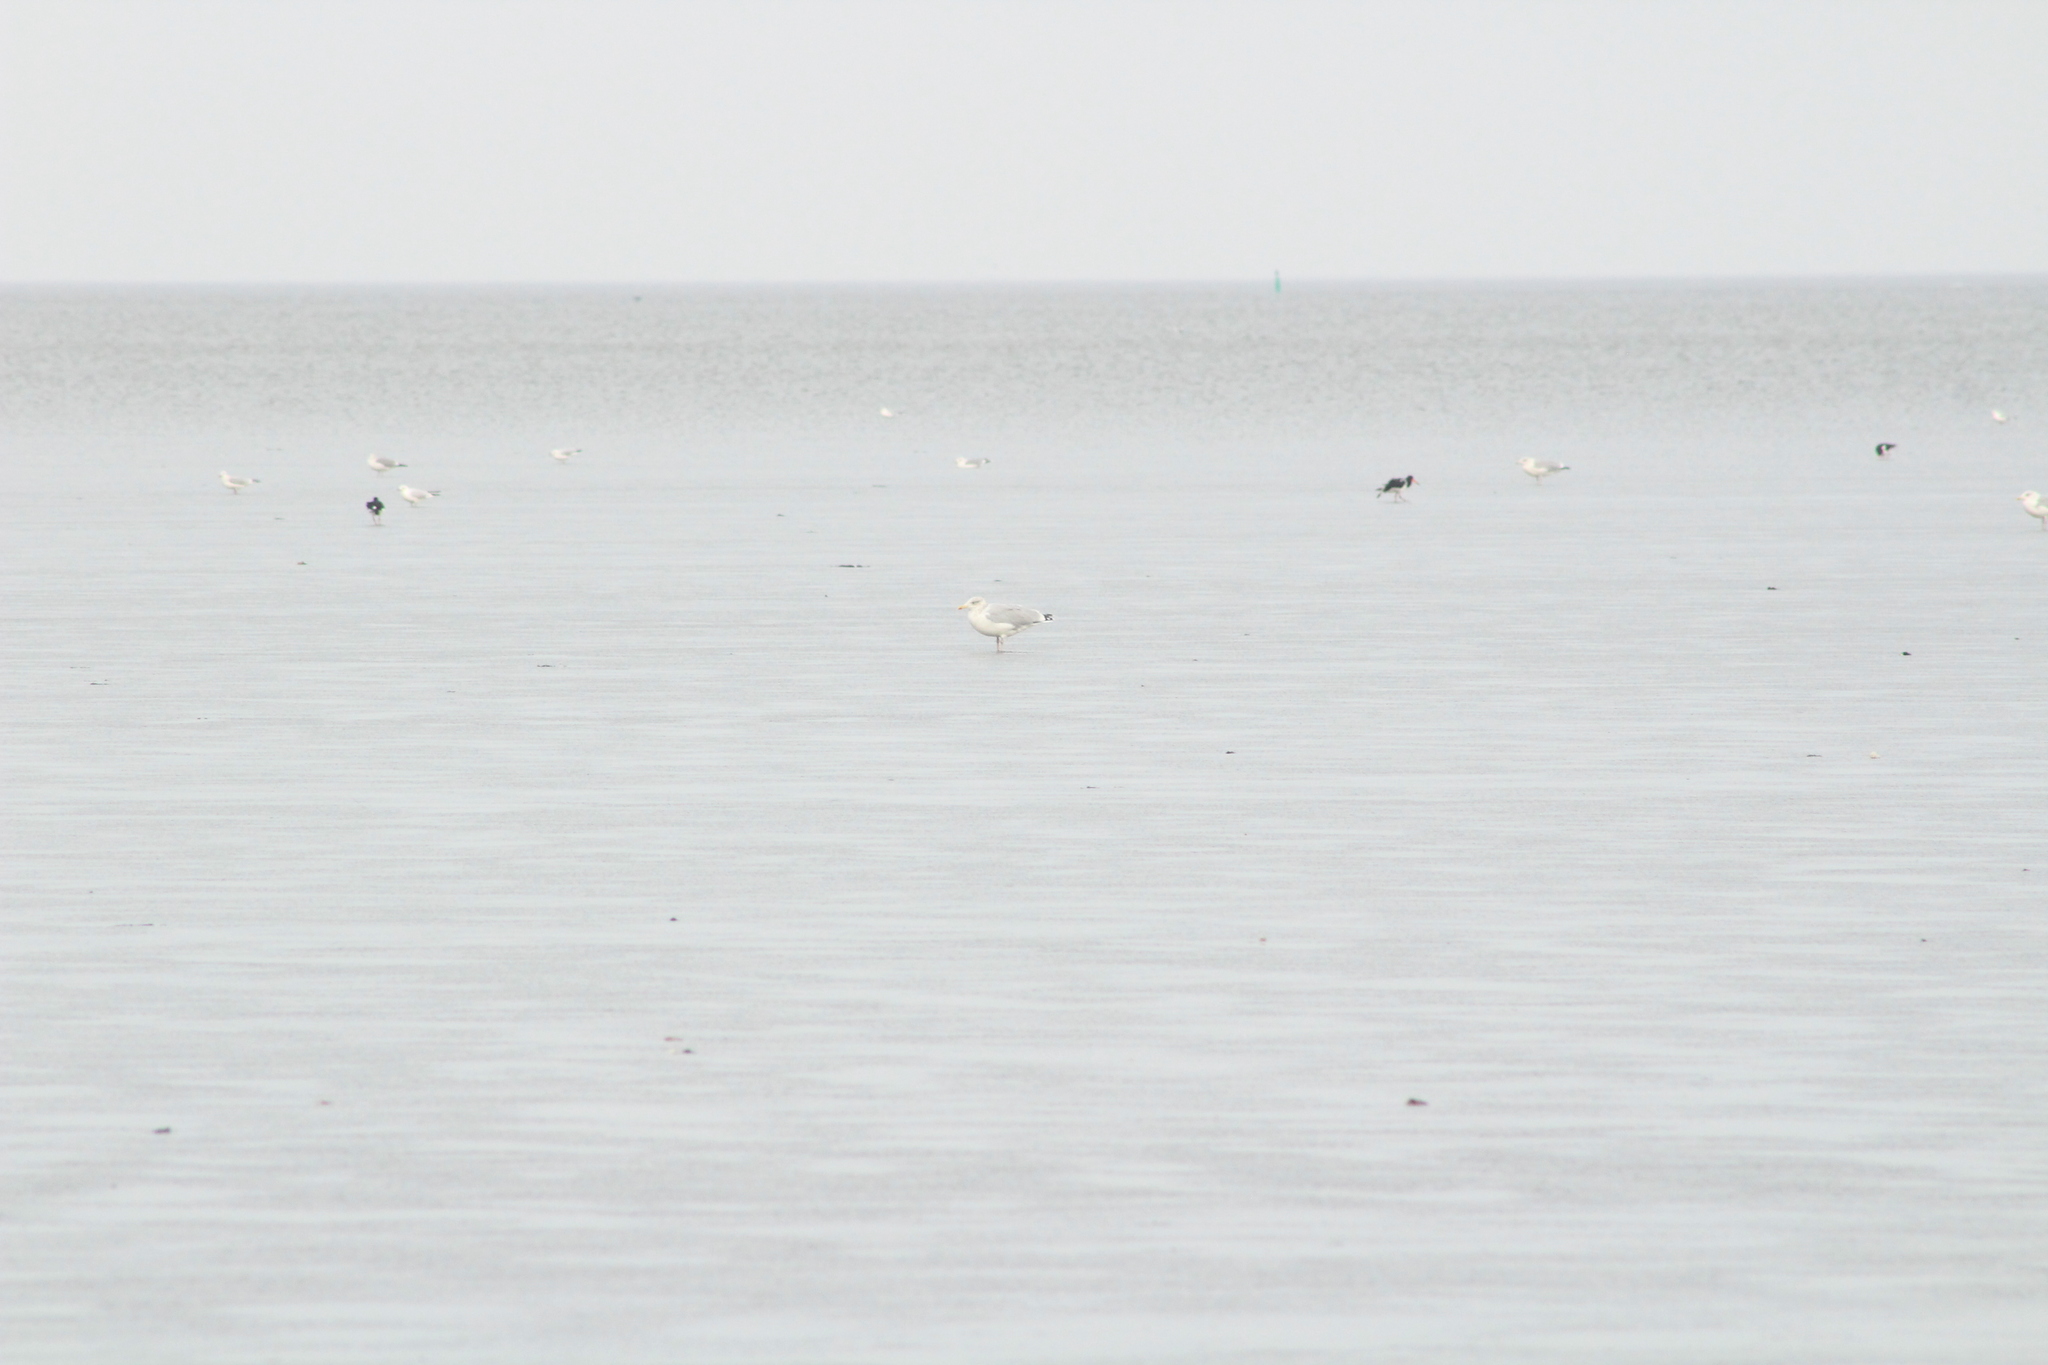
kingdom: Animalia
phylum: Chordata
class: Aves
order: Charadriiformes
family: Laridae
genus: Larus
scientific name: Larus argentatus
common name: Herring gull
